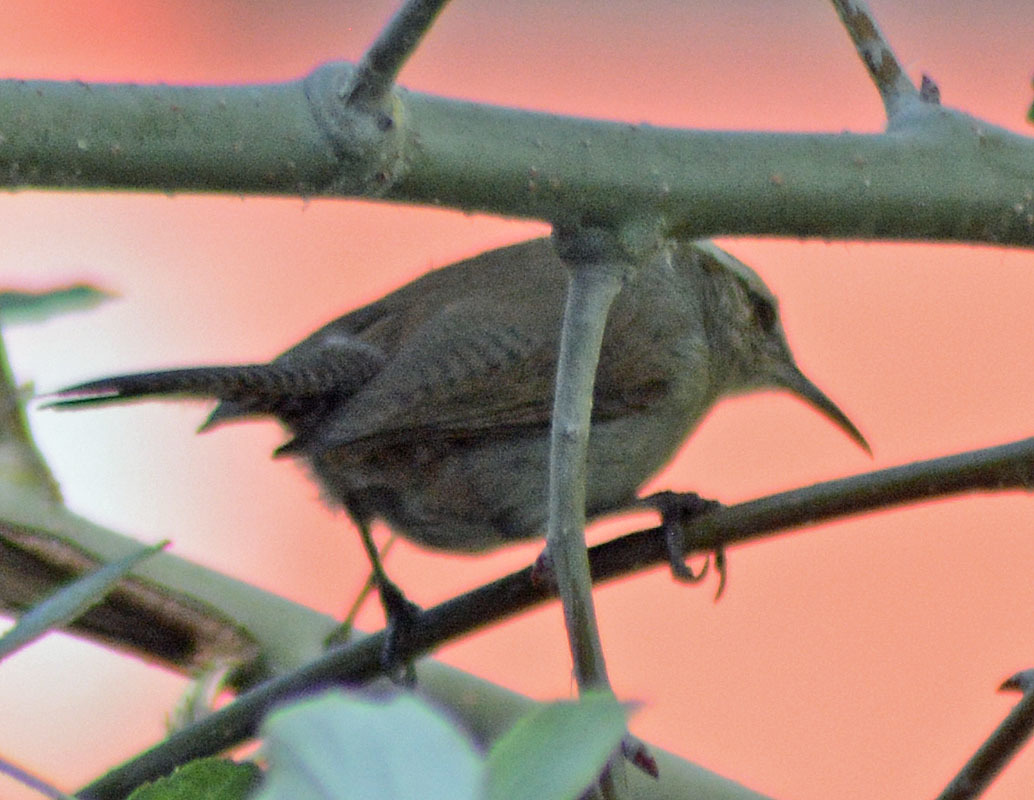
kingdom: Animalia
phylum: Chordata
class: Aves
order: Passeriformes
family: Troglodytidae
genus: Thryomanes
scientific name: Thryomanes bewickii
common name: Bewick's wren
